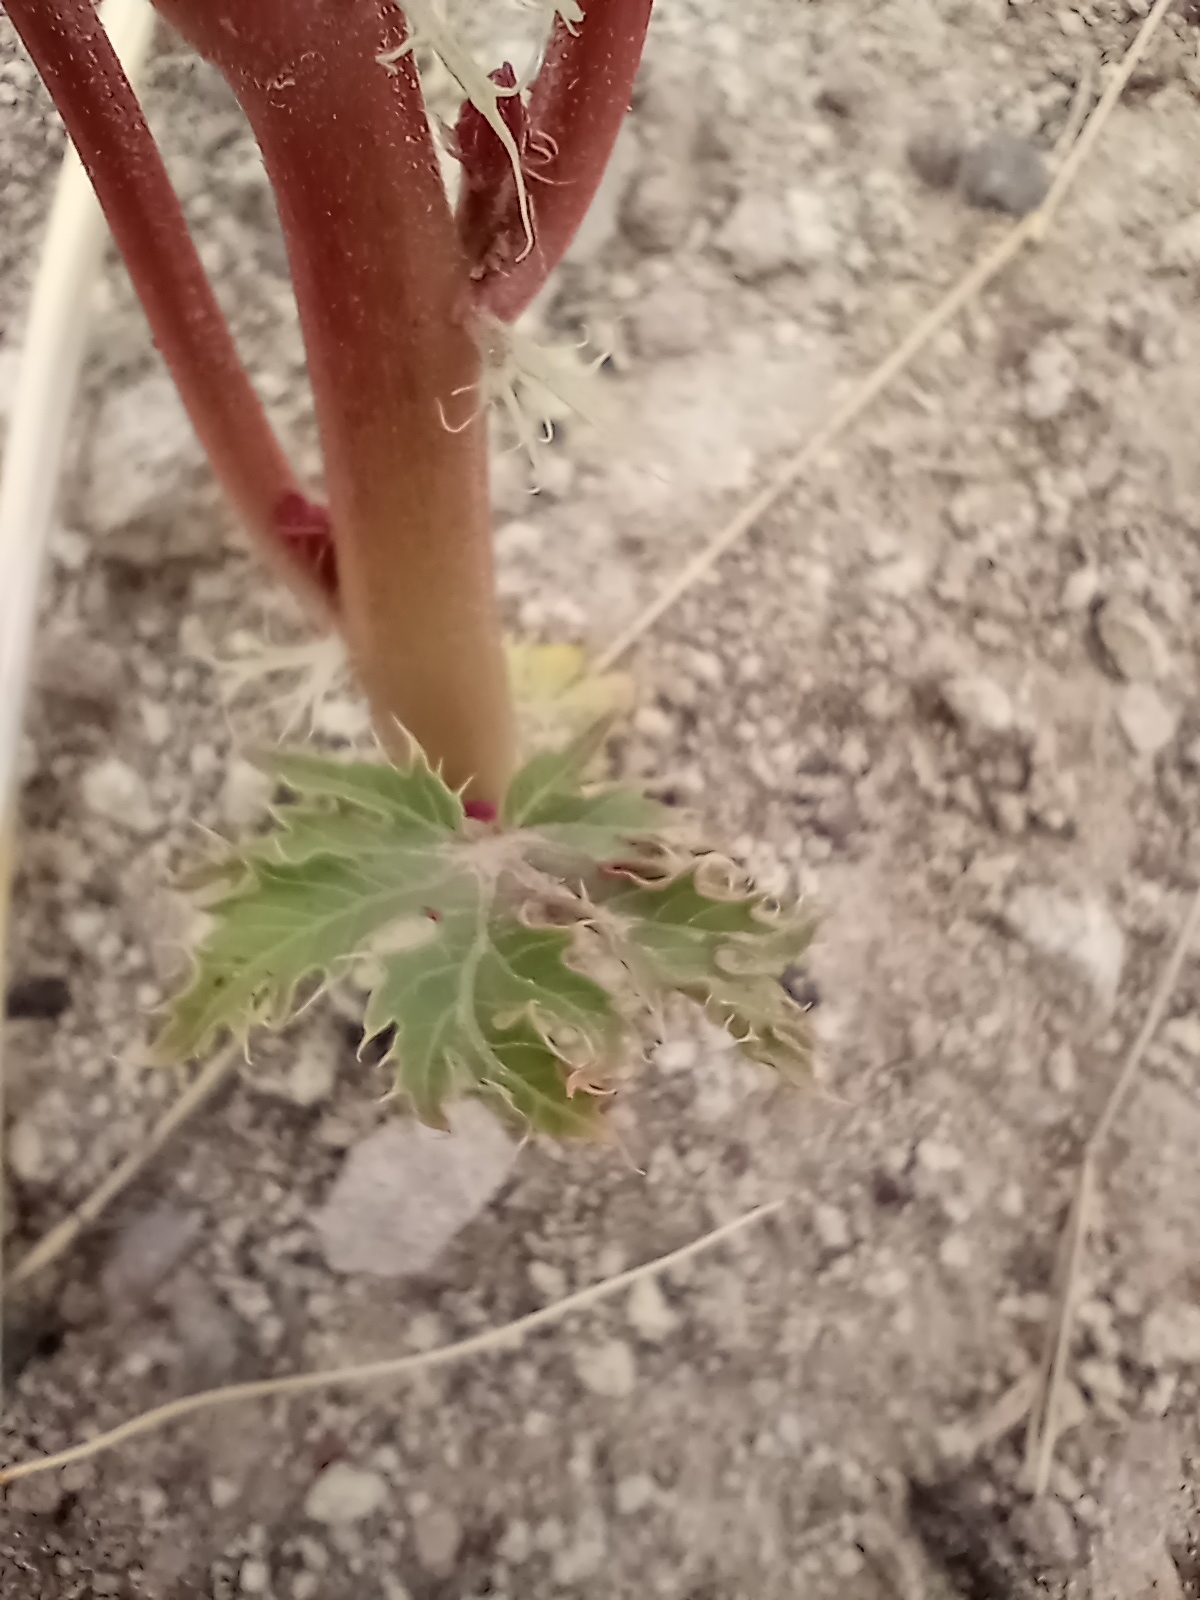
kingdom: Plantae
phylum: Tracheophyta
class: Magnoliopsida
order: Malpighiales
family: Euphorbiaceae
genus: Jatropha
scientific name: Jatropha macrorhiza
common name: Ragged nettlespurge
